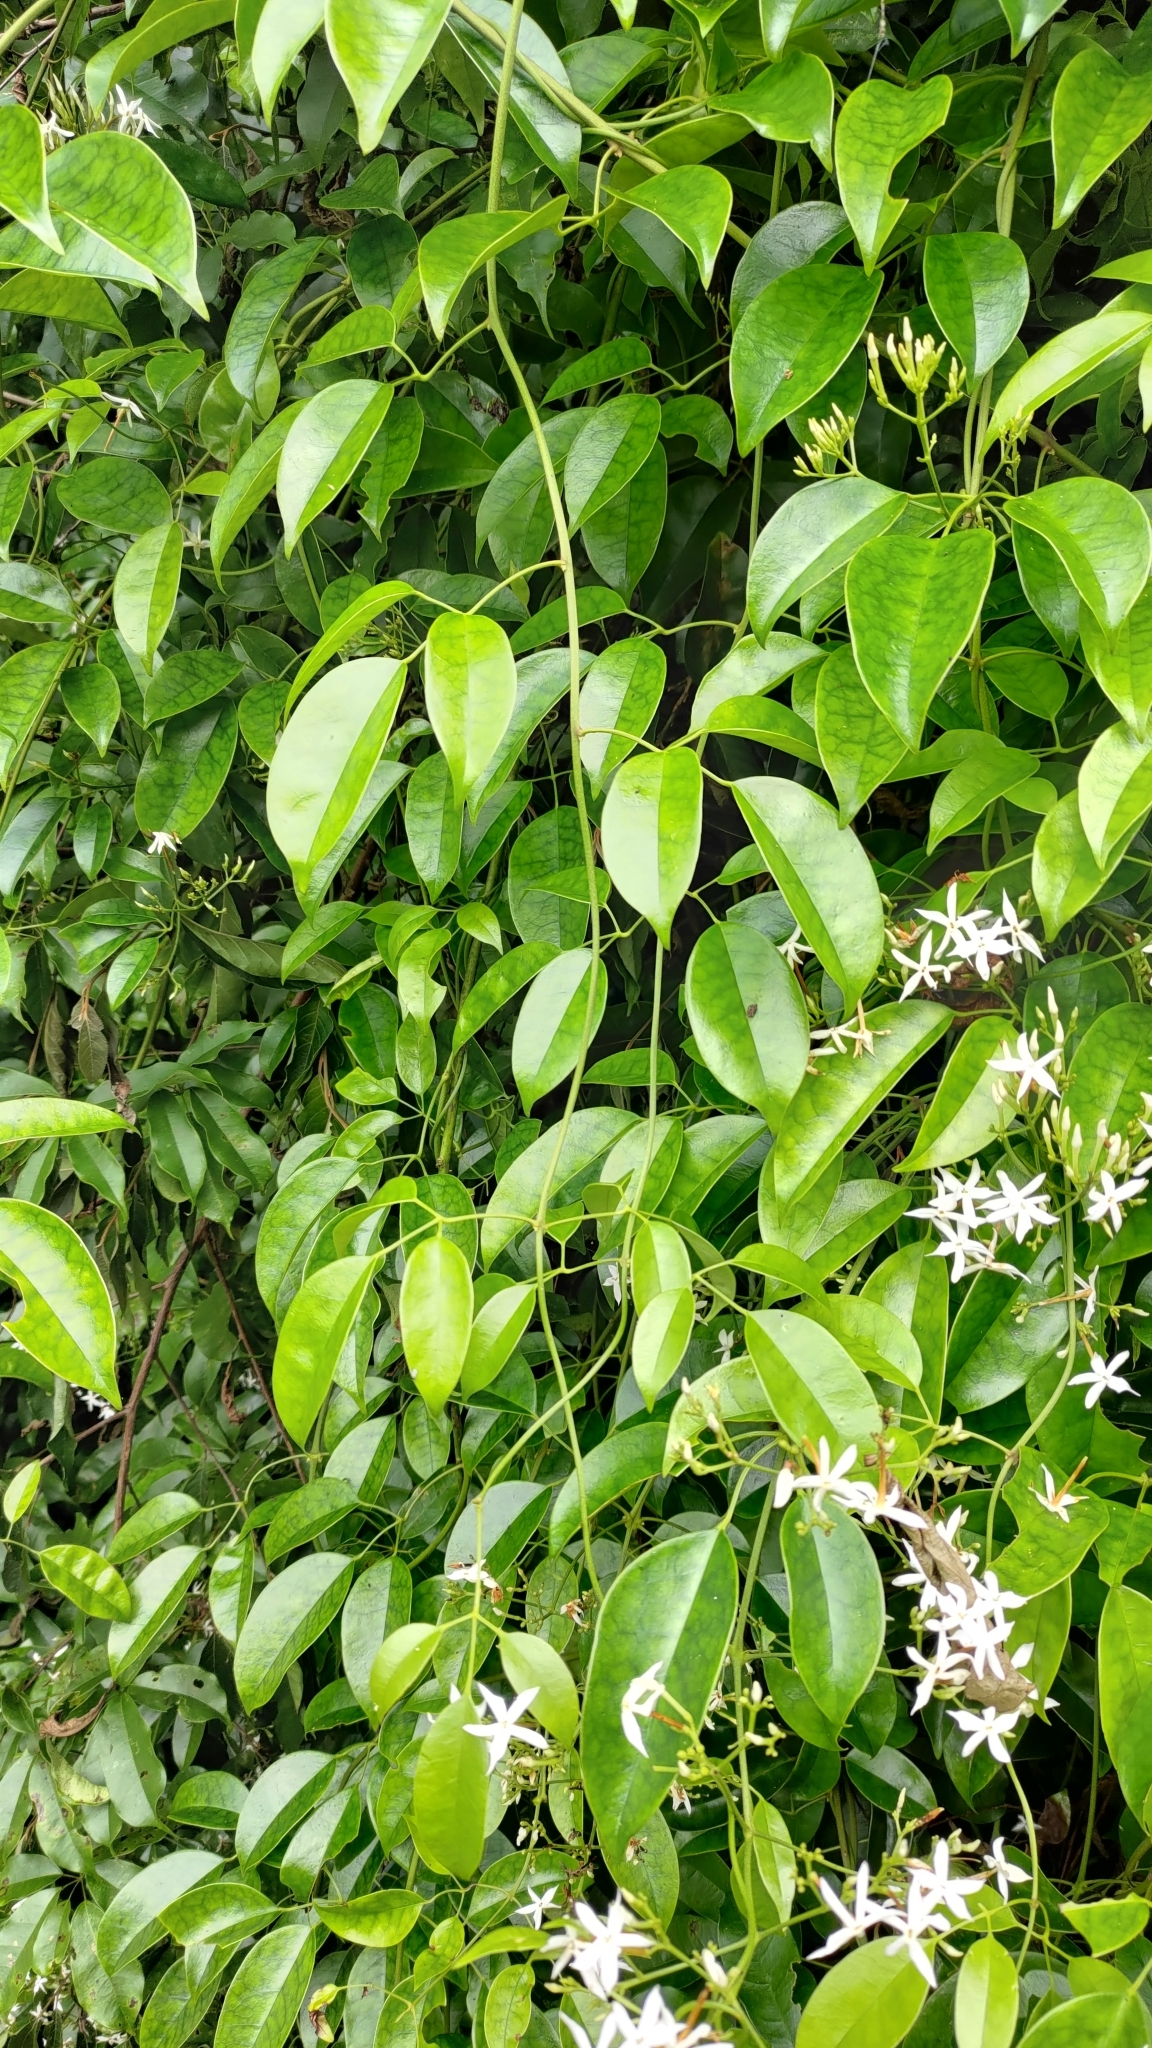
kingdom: Plantae
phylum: Tracheophyta
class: Magnoliopsida
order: Lamiales
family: Oleaceae
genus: Jasminum
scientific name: Jasminum lanceolaria
